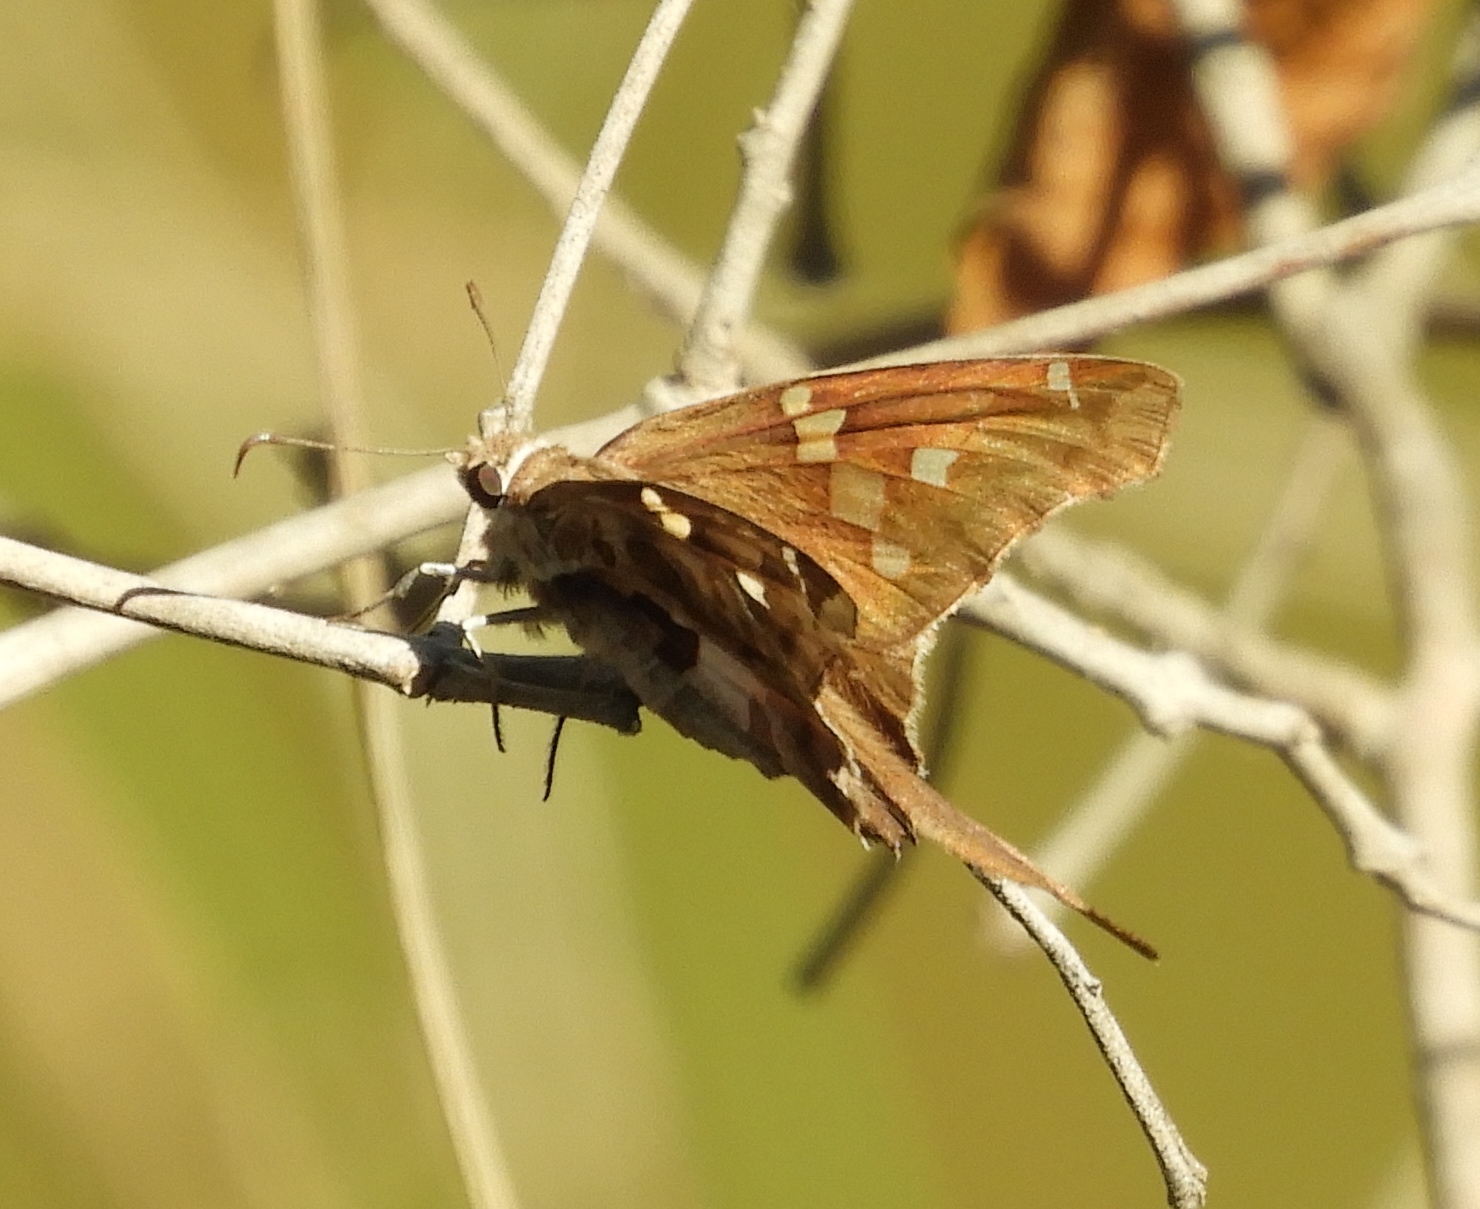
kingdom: Animalia
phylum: Arthropoda
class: Insecta
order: Lepidoptera
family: Hesperiidae
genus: Chioides
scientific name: Chioides zilpa
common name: Zilpa longtail
